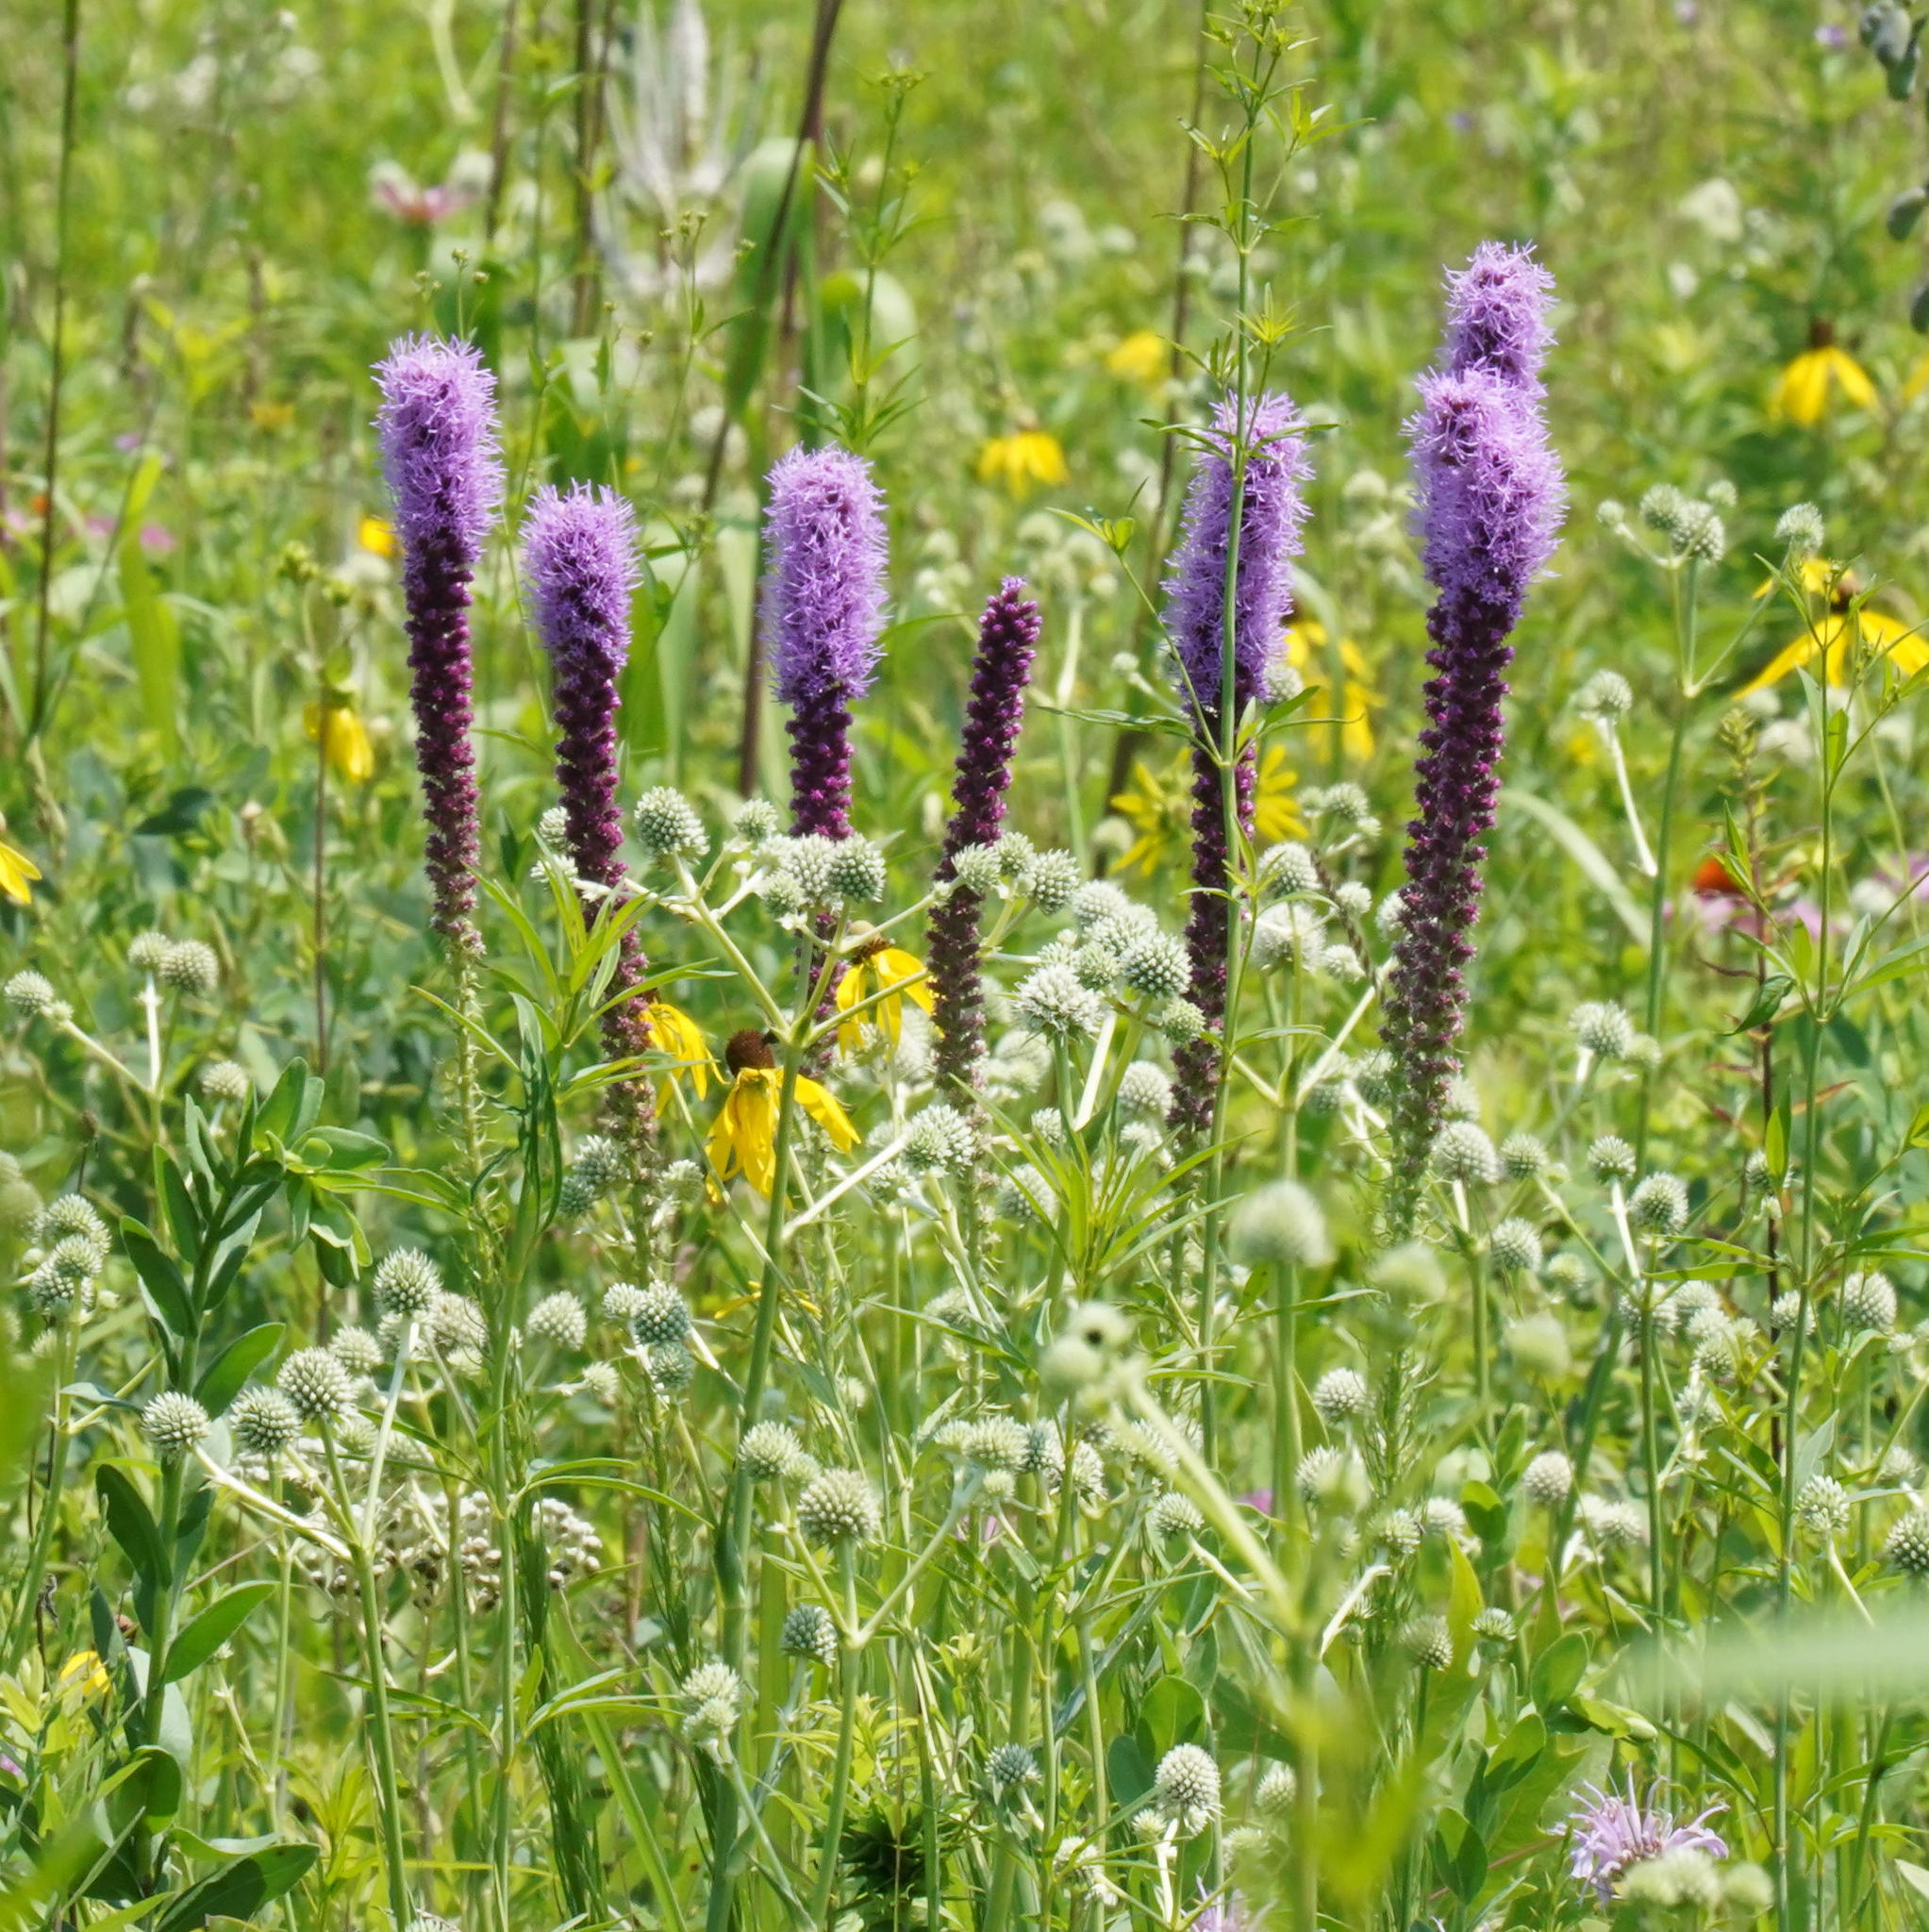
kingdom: Plantae
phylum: Tracheophyta
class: Magnoliopsida
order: Asterales
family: Asteraceae
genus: Liatris
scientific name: Liatris pycnostachya
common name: Cattail gayfeather
